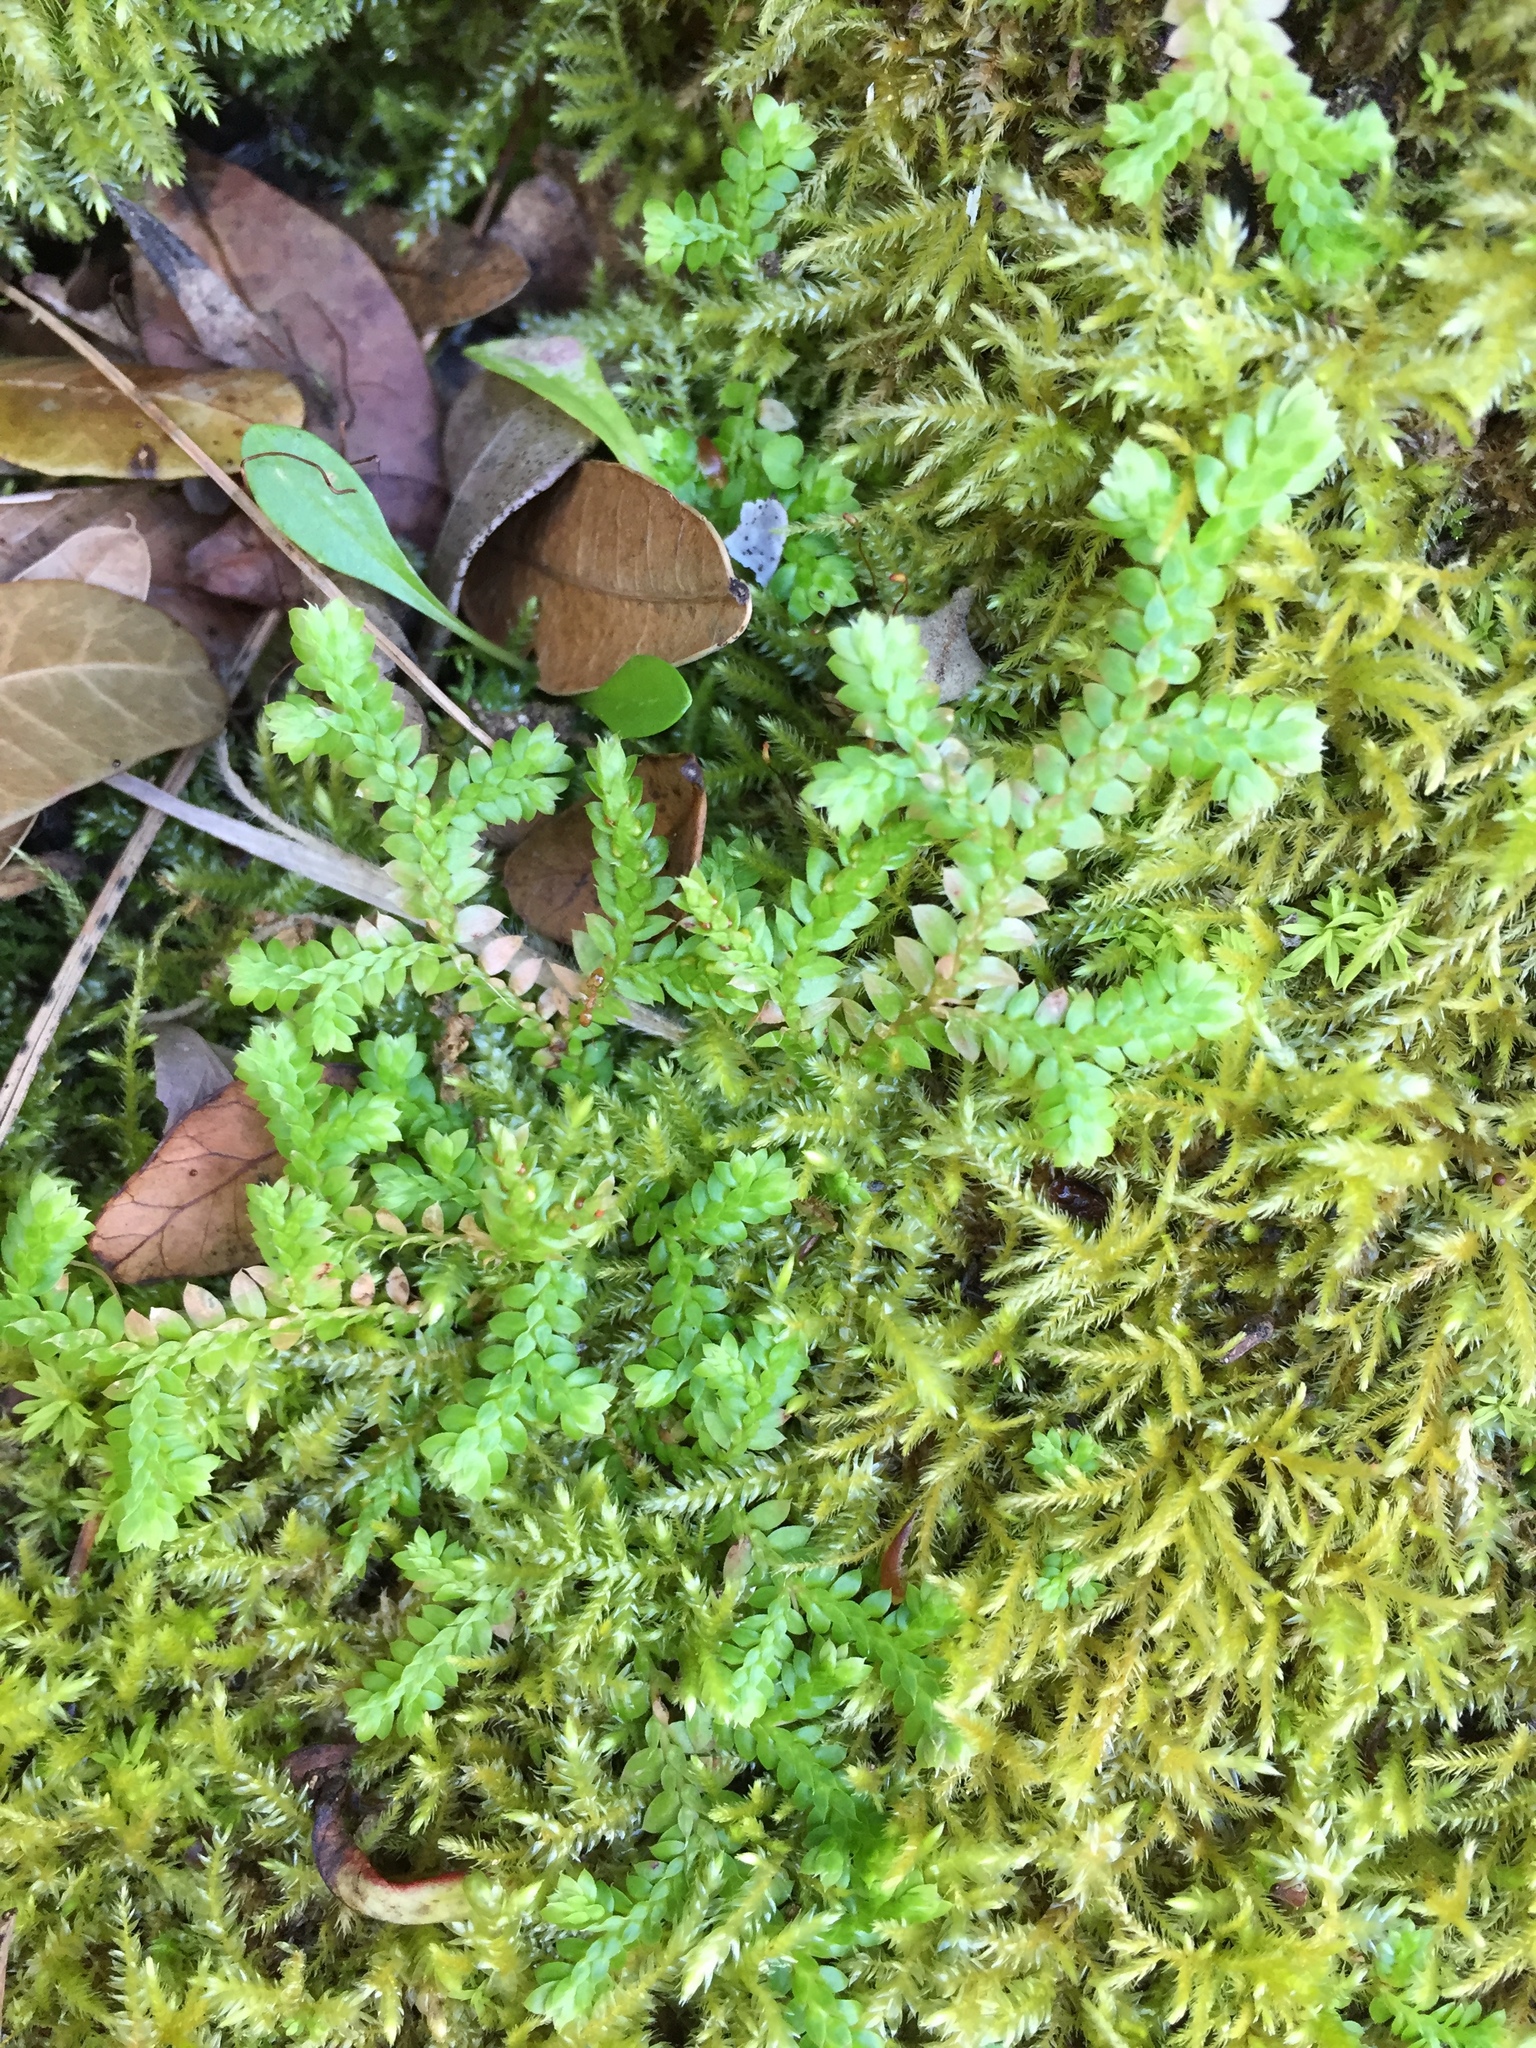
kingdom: Plantae
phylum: Tracheophyta
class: Lycopodiopsida
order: Selaginellales
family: Selaginellaceae
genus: Selaginella
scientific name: Selaginella denticulata
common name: Toothed-leaved clubmoss
